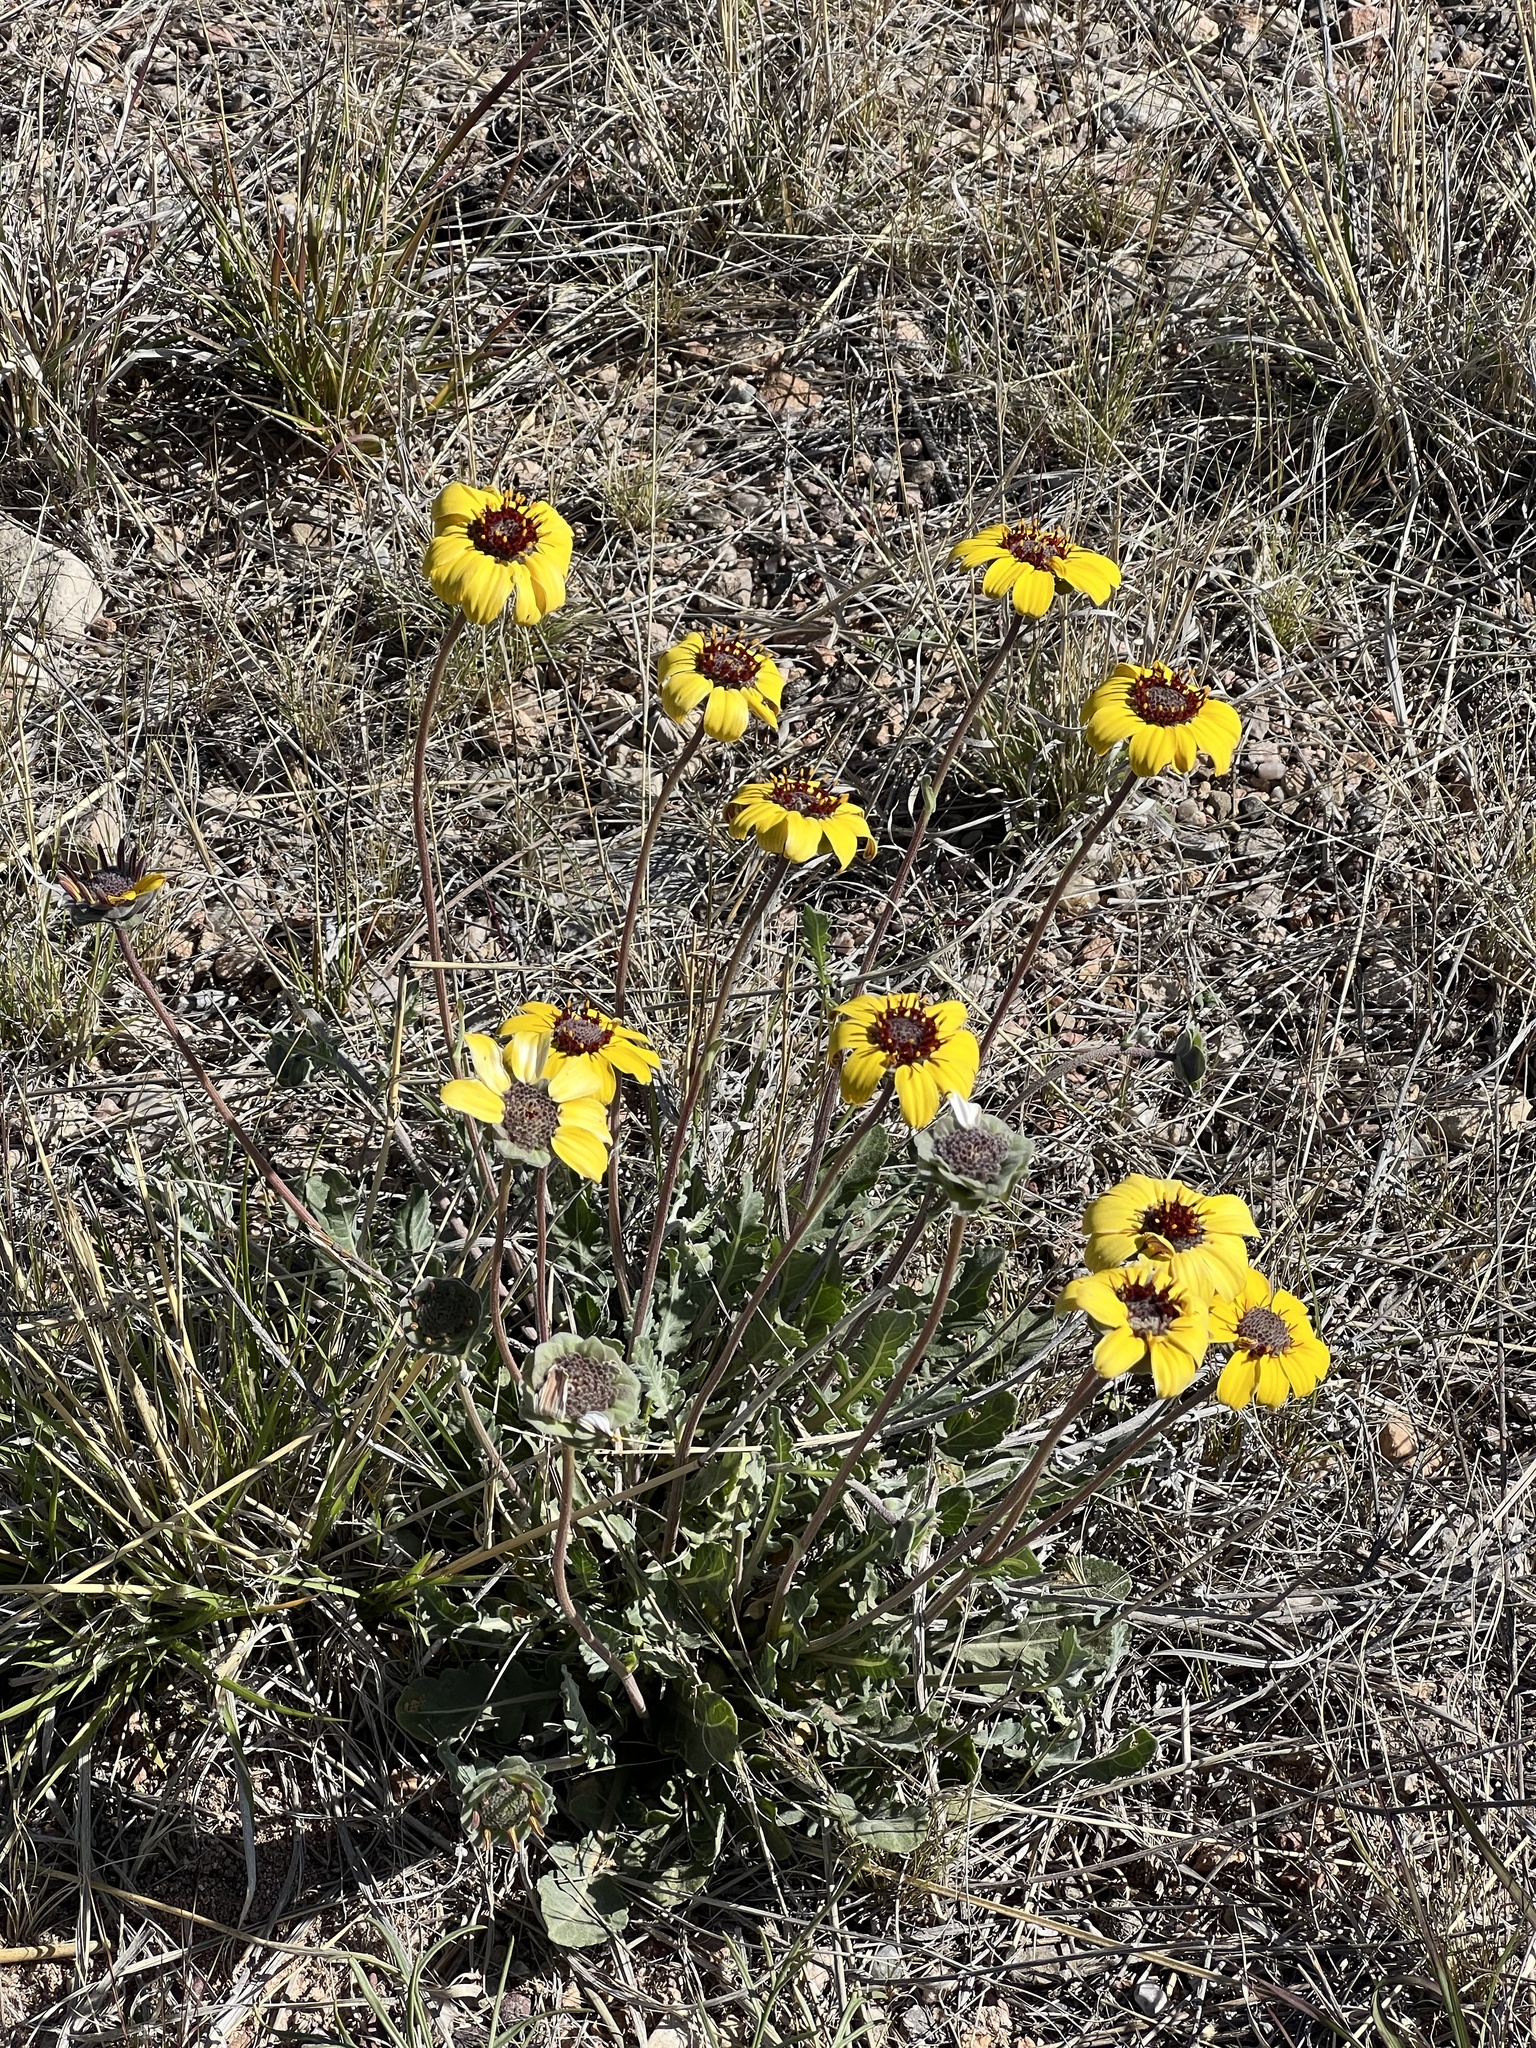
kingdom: Plantae
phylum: Tracheophyta
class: Magnoliopsida
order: Asterales
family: Asteraceae
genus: Berlandiera
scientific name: Berlandiera lyrata
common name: Chocolate-flower
